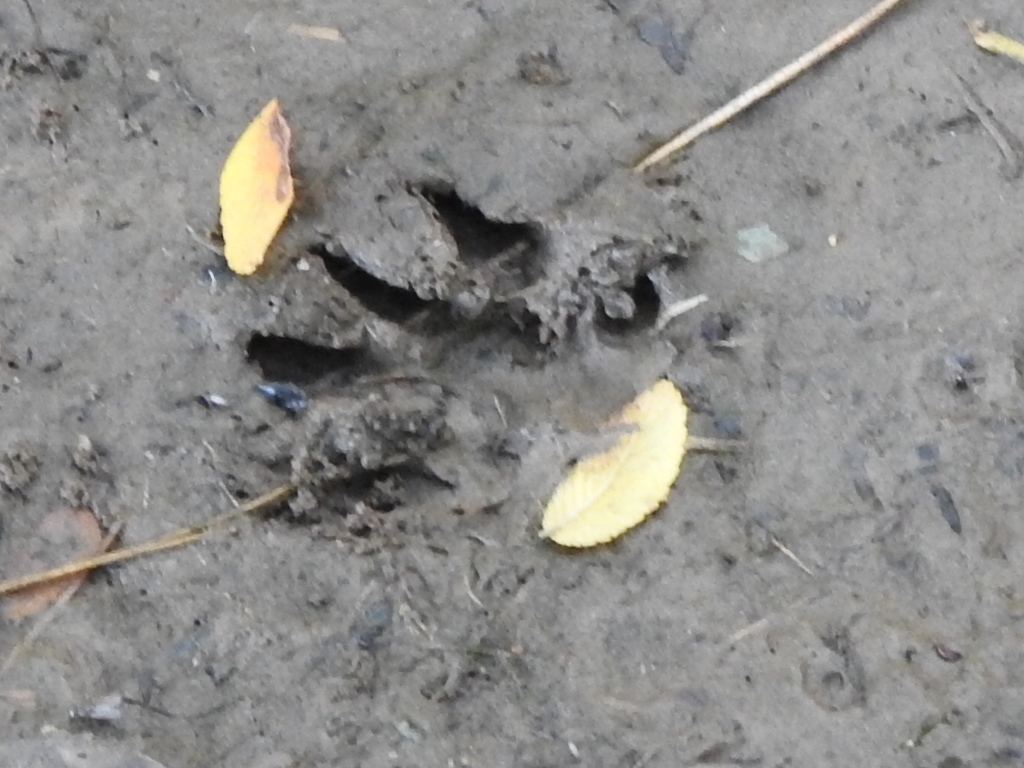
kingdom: Animalia
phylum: Chordata
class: Mammalia
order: Carnivora
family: Procyonidae
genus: Procyon
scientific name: Procyon lotor
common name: Raccoon
